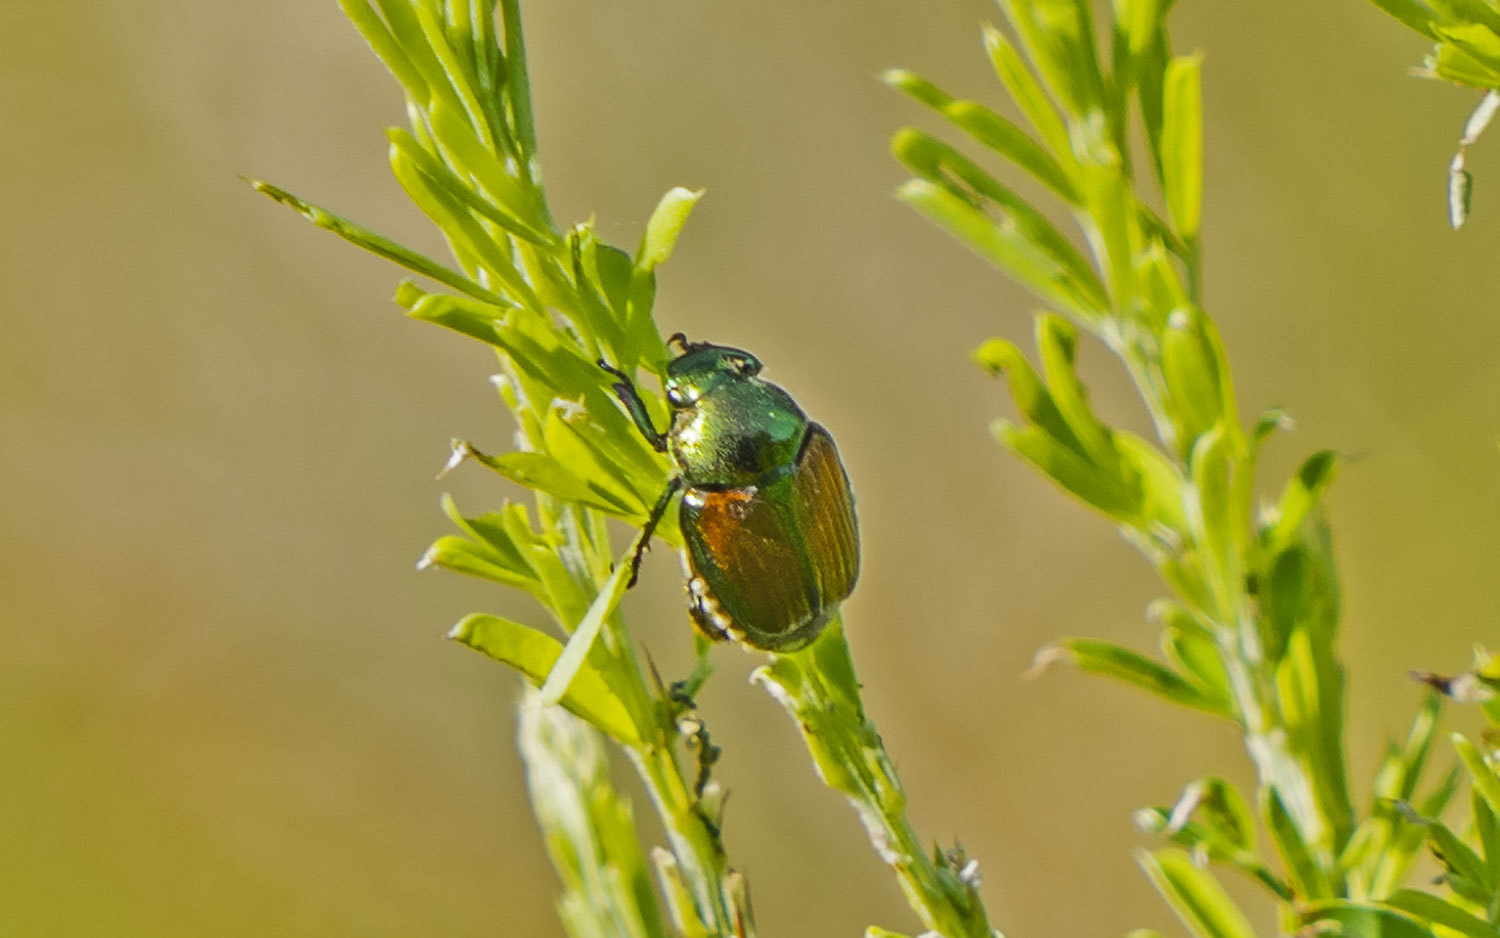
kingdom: Animalia
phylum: Arthropoda
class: Insecta
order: Coleoptera
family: Scarabaeidae
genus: Popillia
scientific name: Popillia japonica
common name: Japanese beetle
